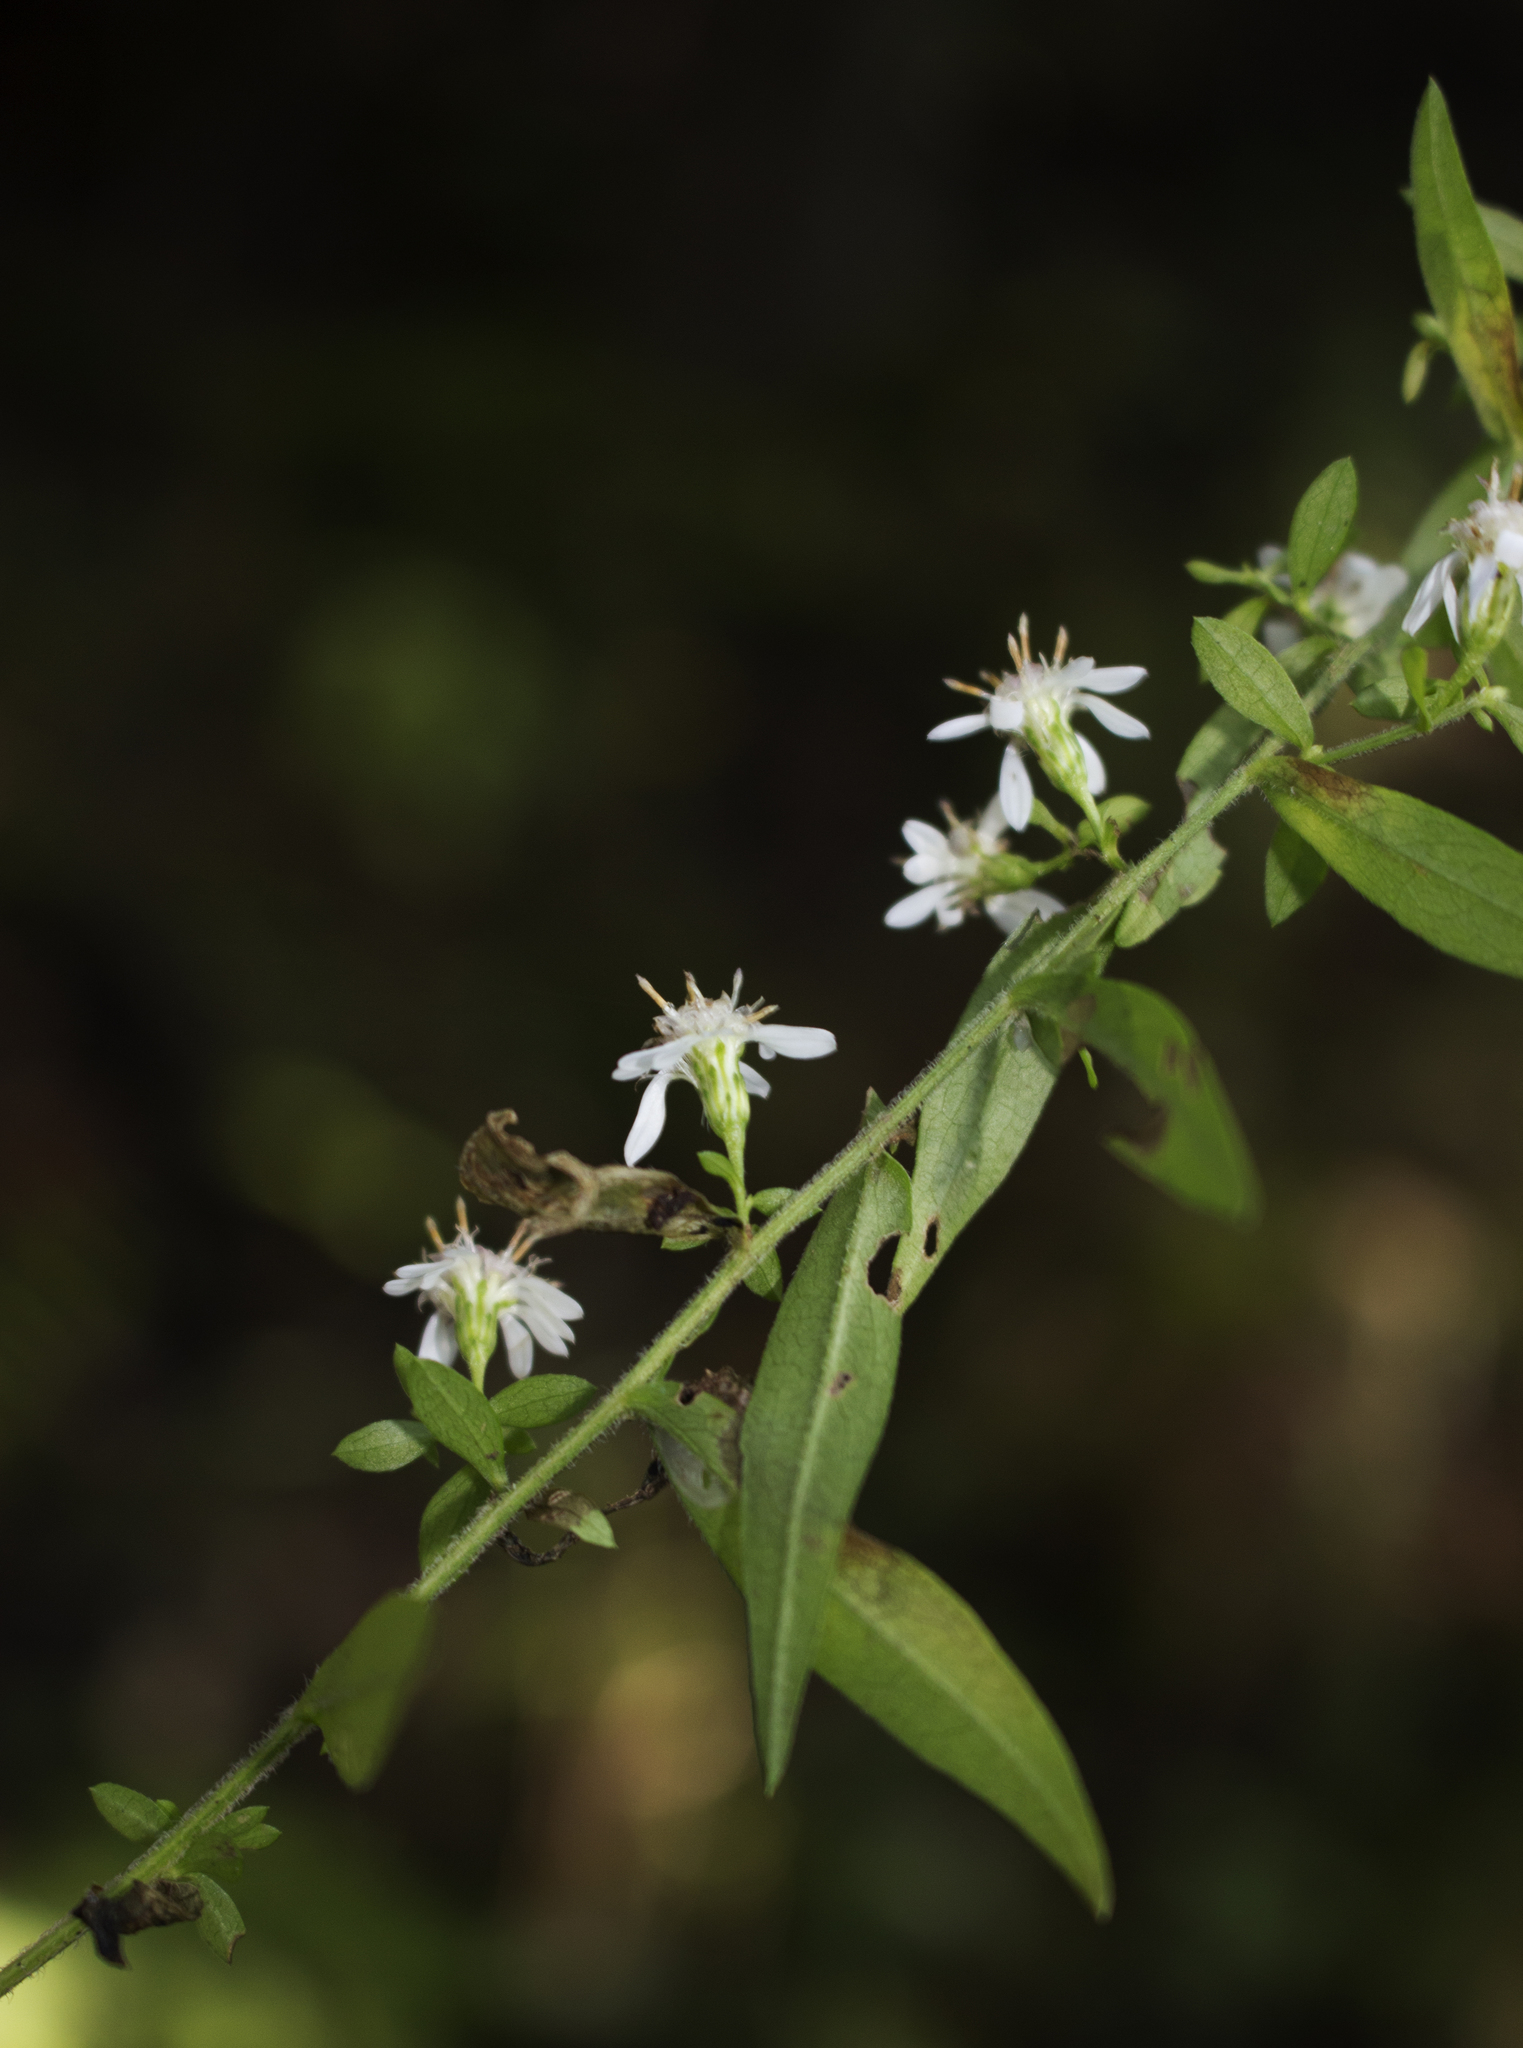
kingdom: Plantae
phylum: Tracheophyta
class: Magnoliopsida
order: Asterales
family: Asteraceae
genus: Symphyotrichum
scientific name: Symphyotrichum lateriflorum
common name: Calico aster
